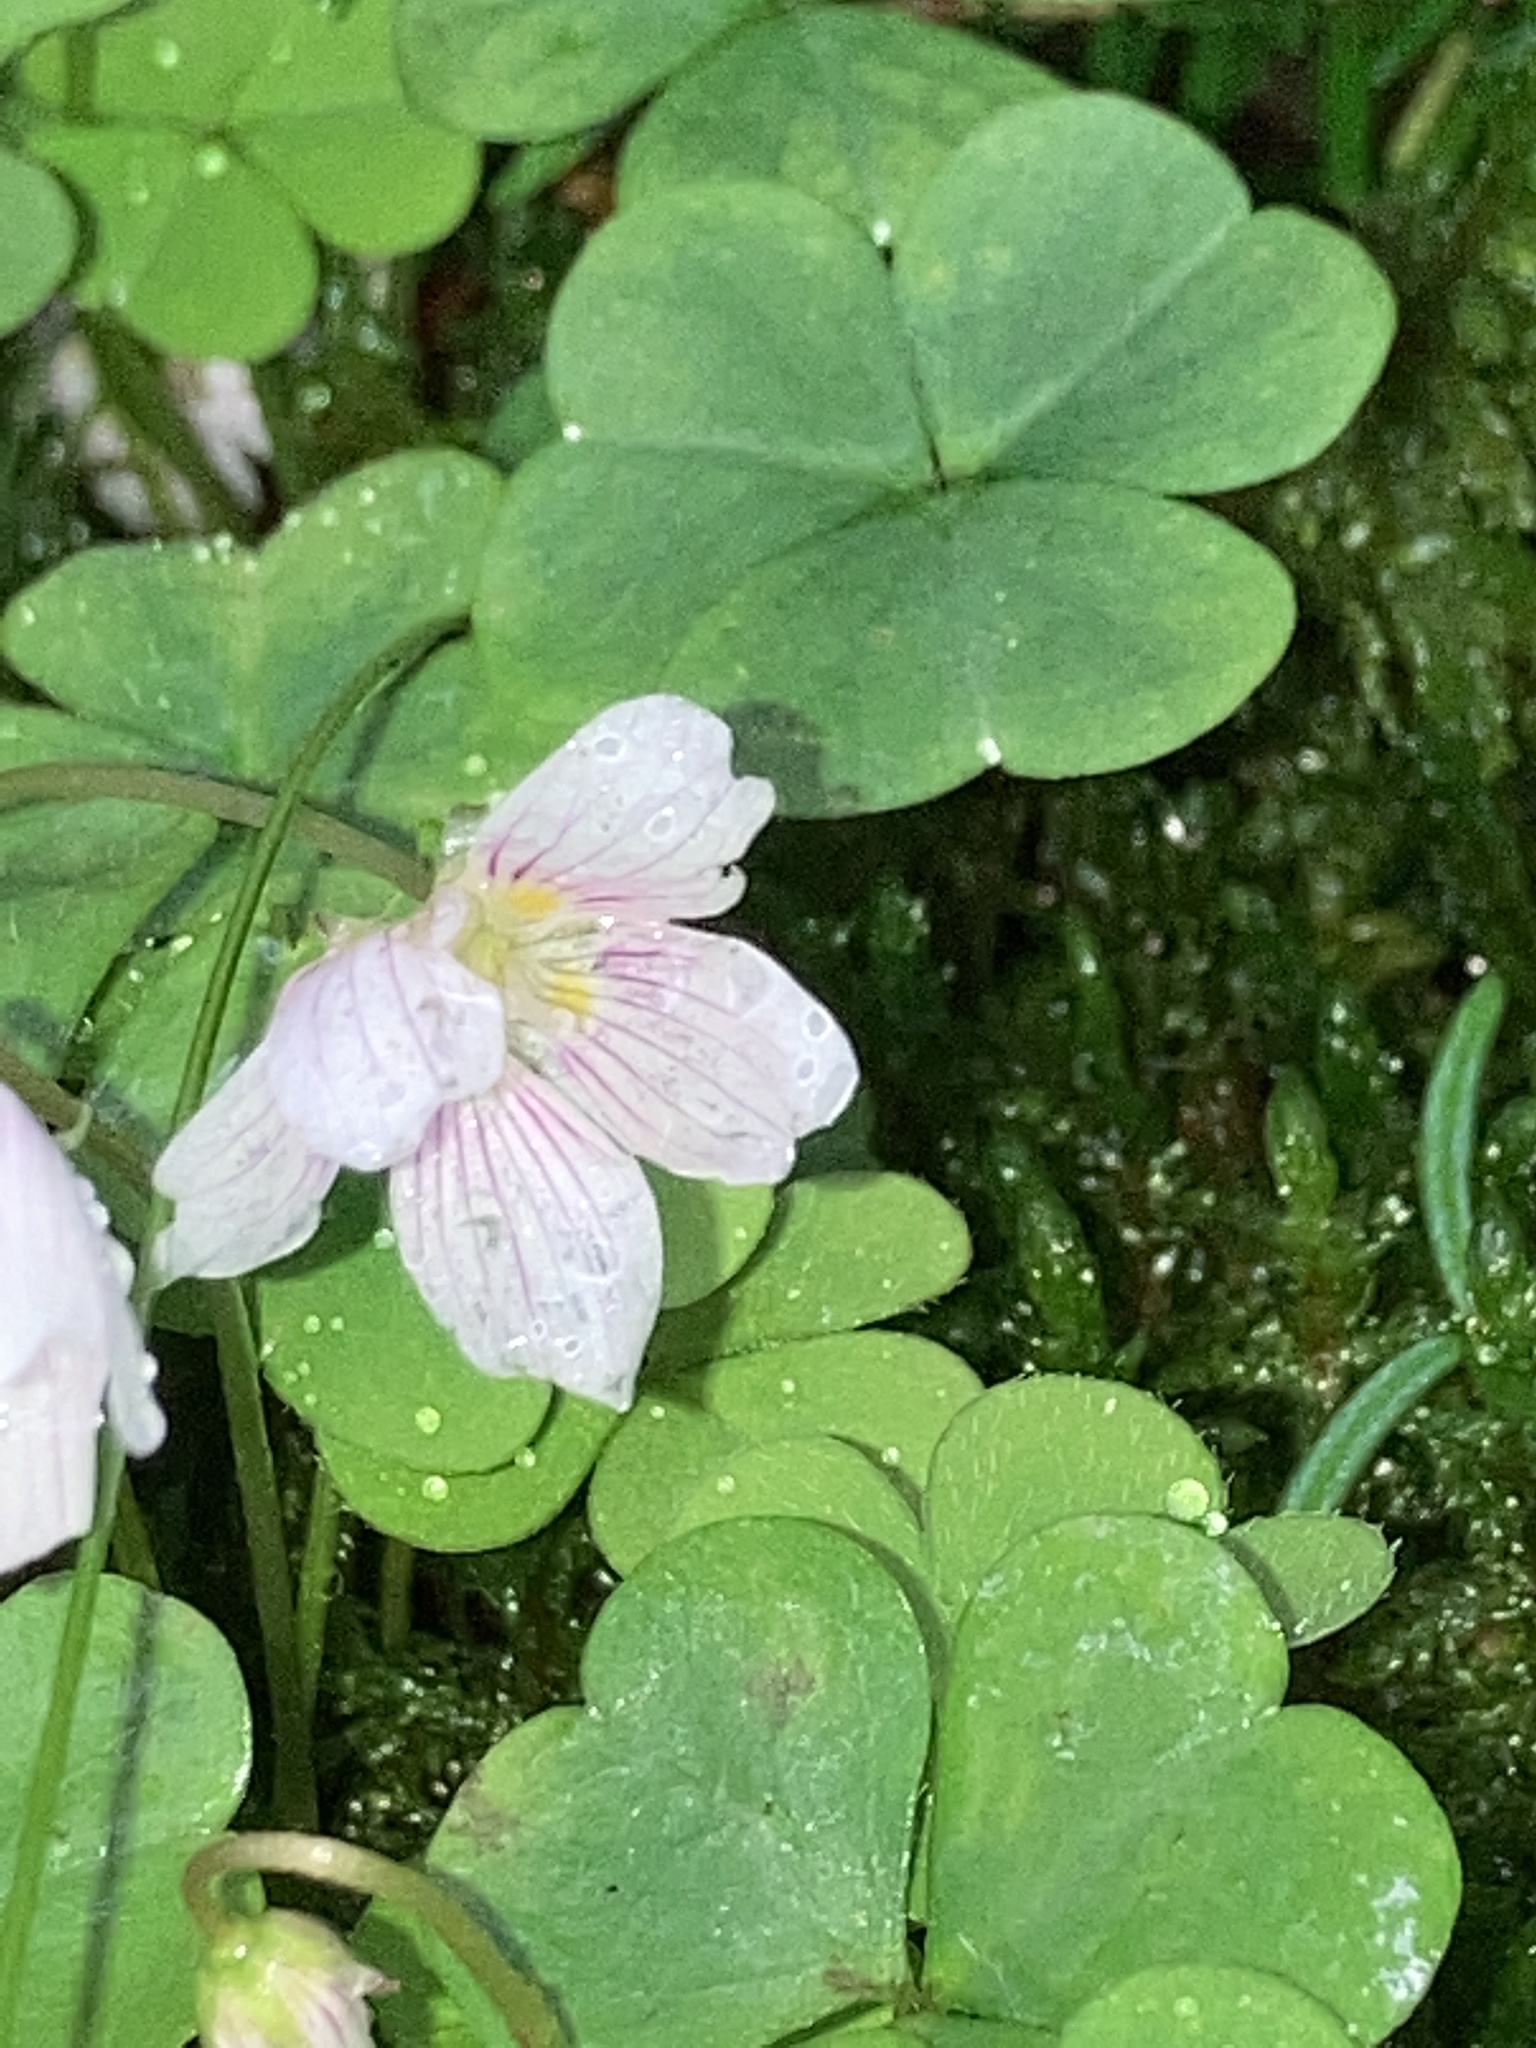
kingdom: Plantae
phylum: Tracheophyta
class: Magnoliopsida
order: Oxalidales
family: Oxalidaceae
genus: Oxalis
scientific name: Oxalis montana
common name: American wood-sorrel
